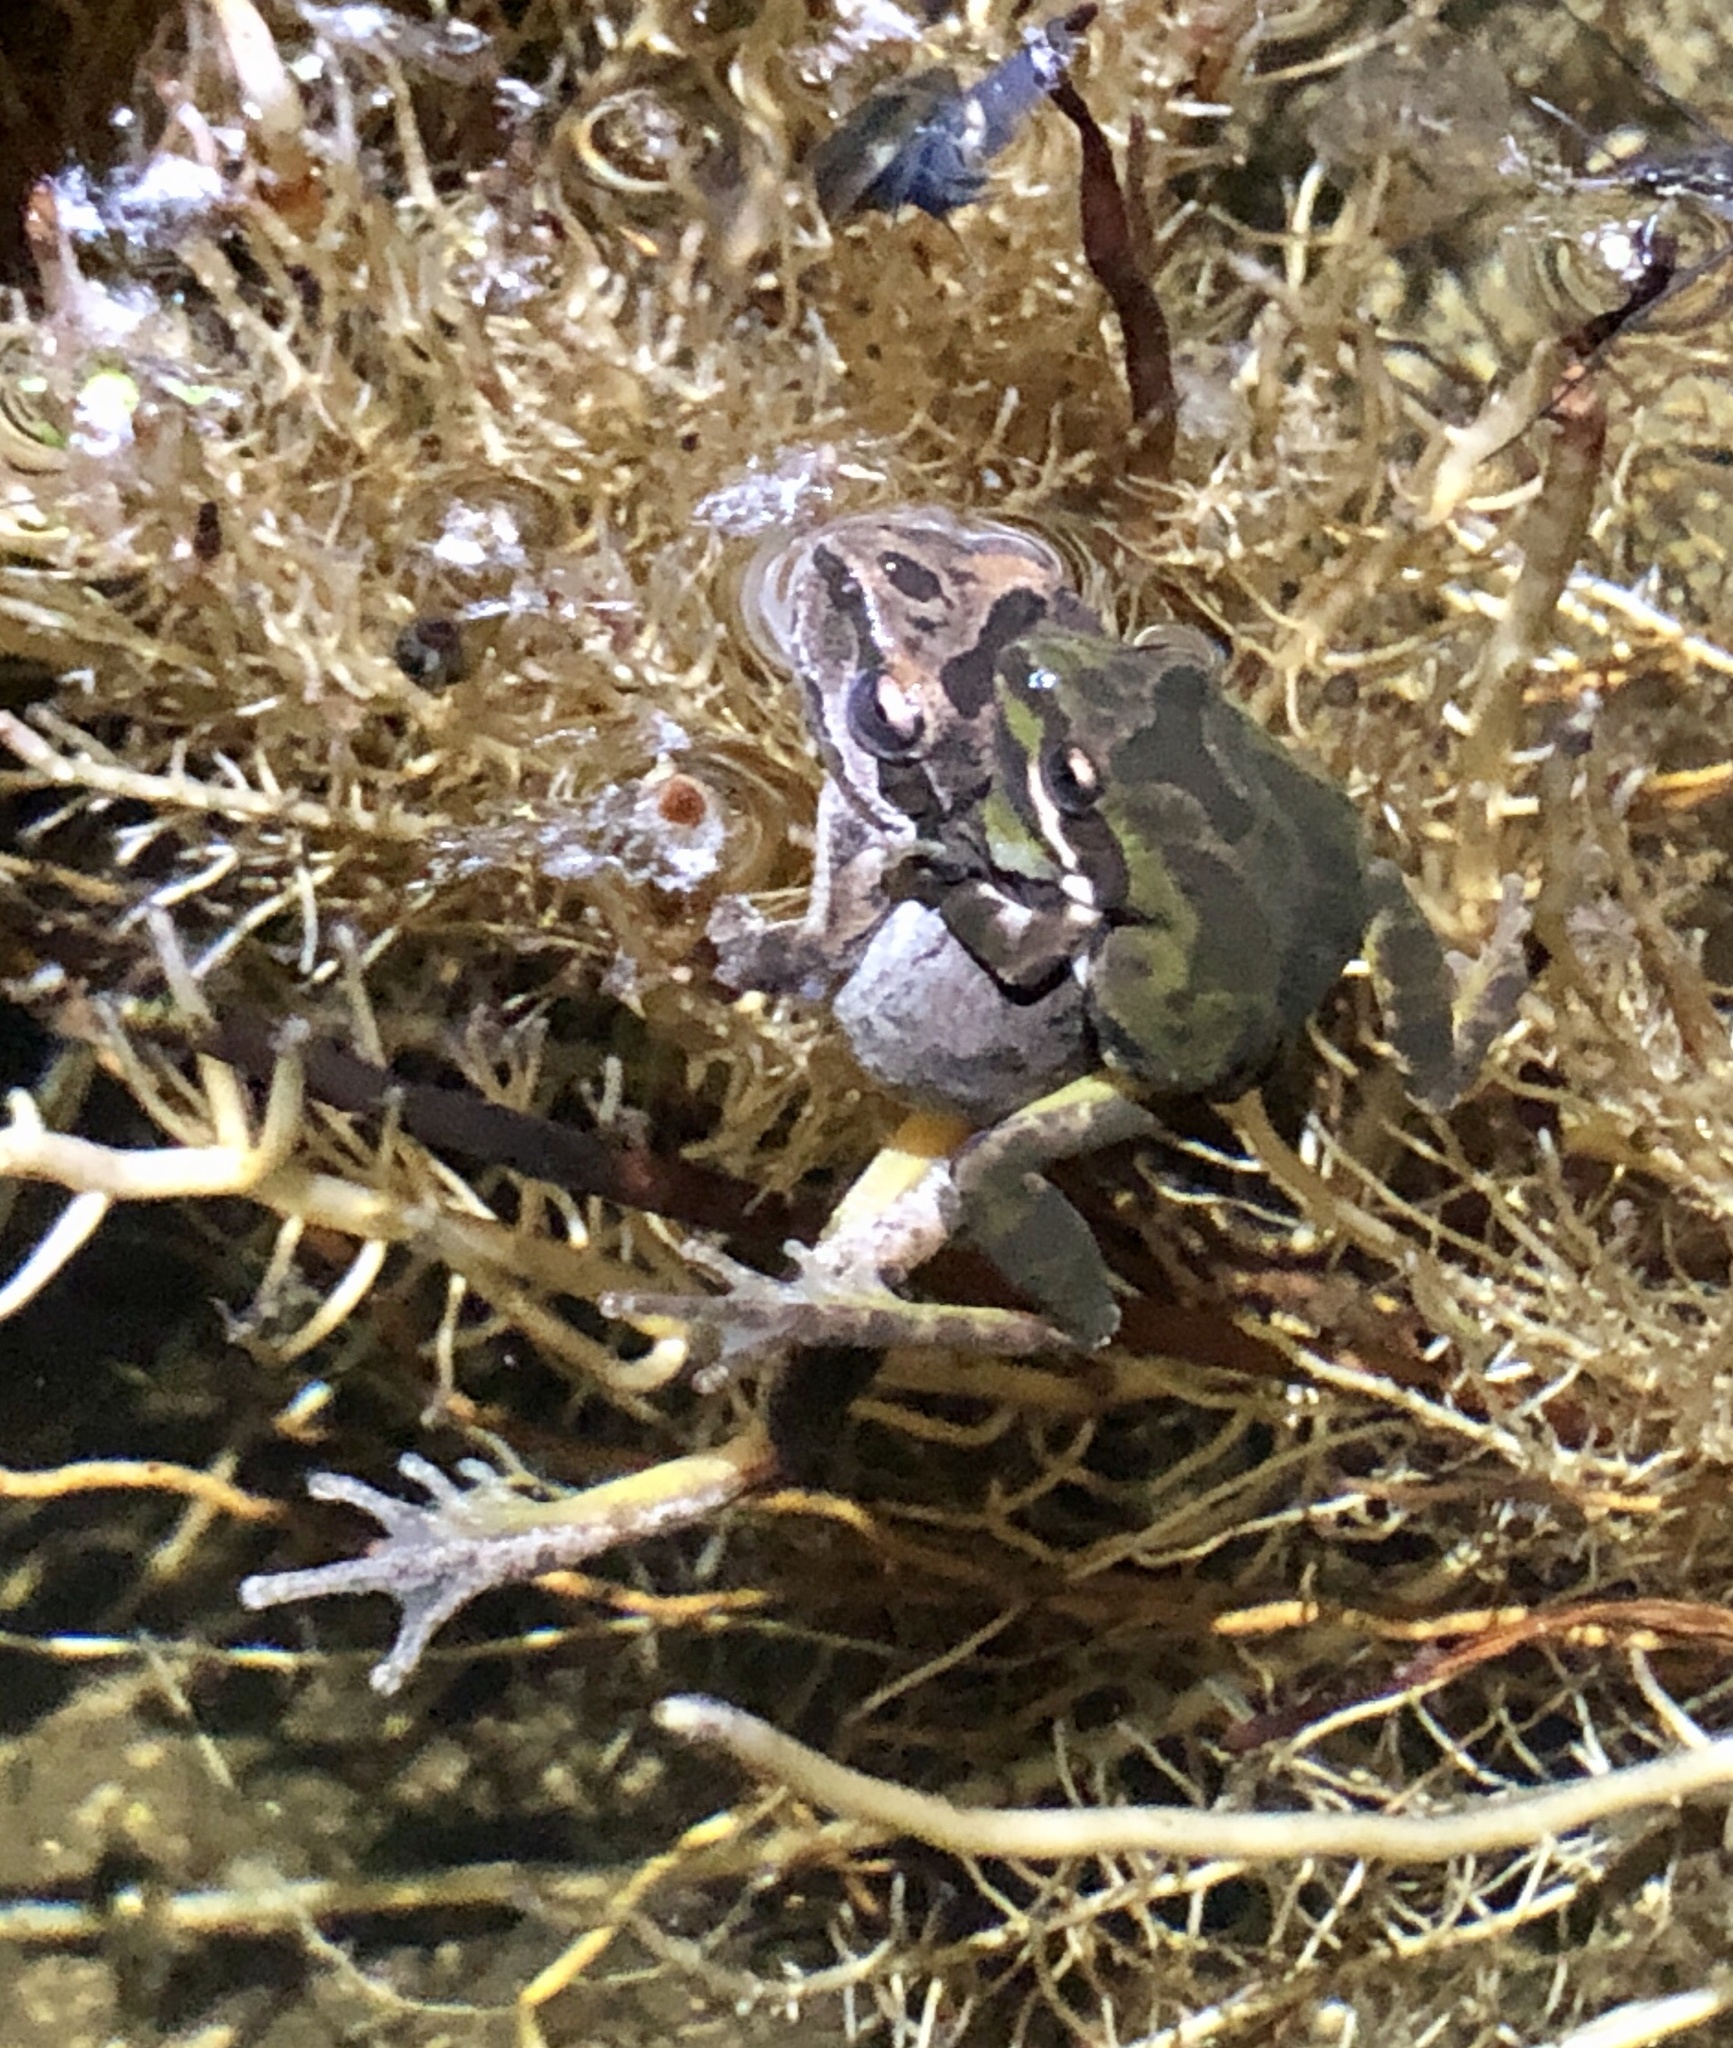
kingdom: Animalia
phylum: Chordata
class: Amphibia
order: Anura
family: Hylidae
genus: Pseudacris
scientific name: Pseudacris regilla
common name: Pacific chorus frog
